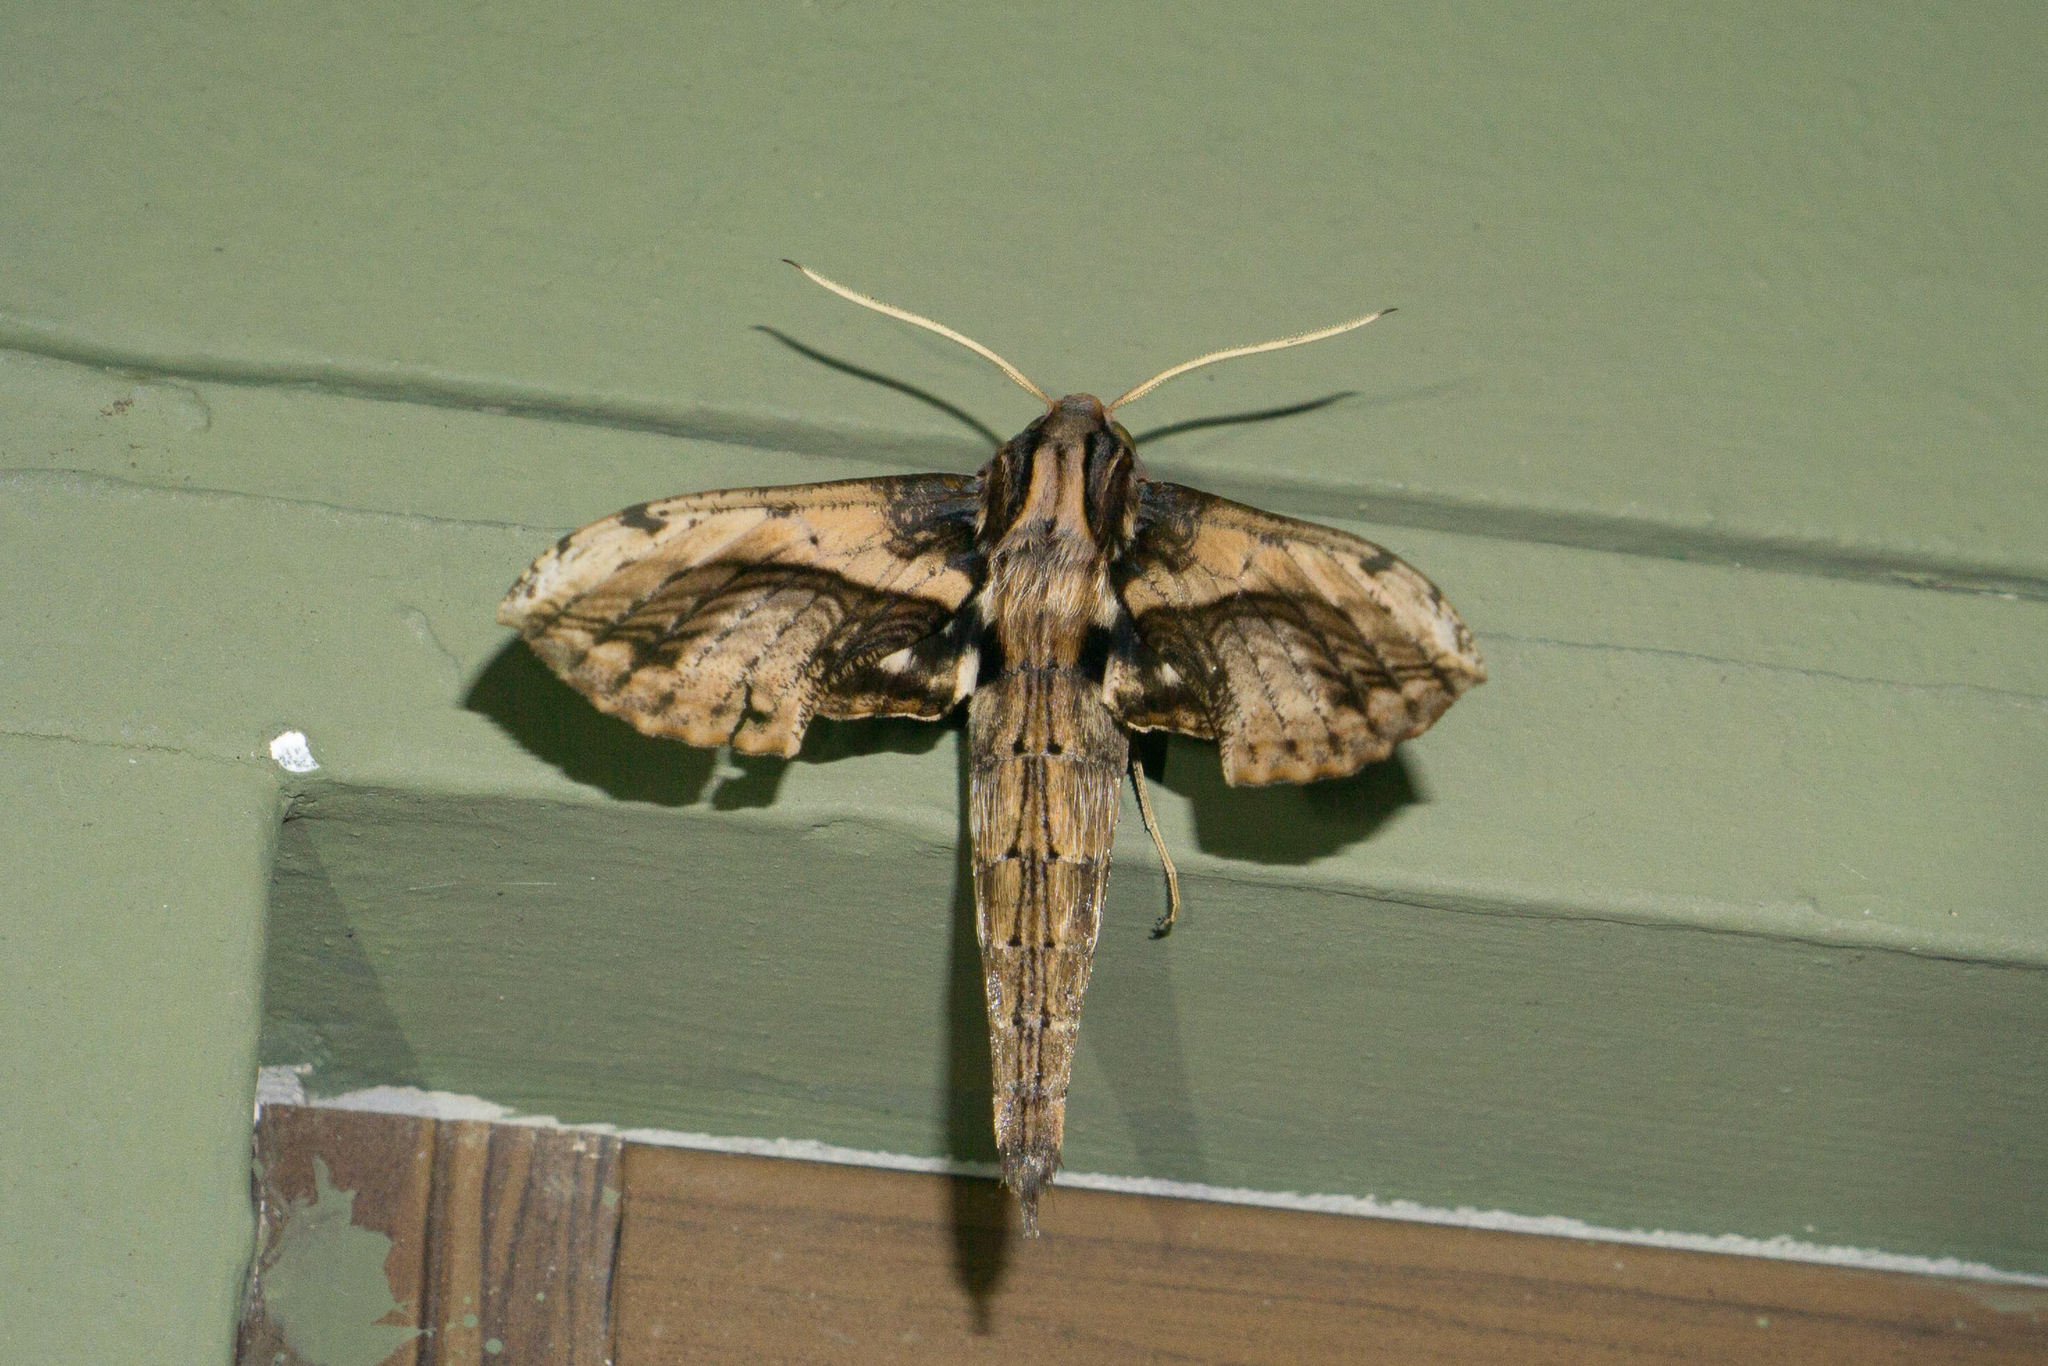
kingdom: Animalia
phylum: Arthropoda
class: Insecta
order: Lepidoptera
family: Sphingidae
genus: Xylophanes
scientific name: Xylophanes ceratomioides
